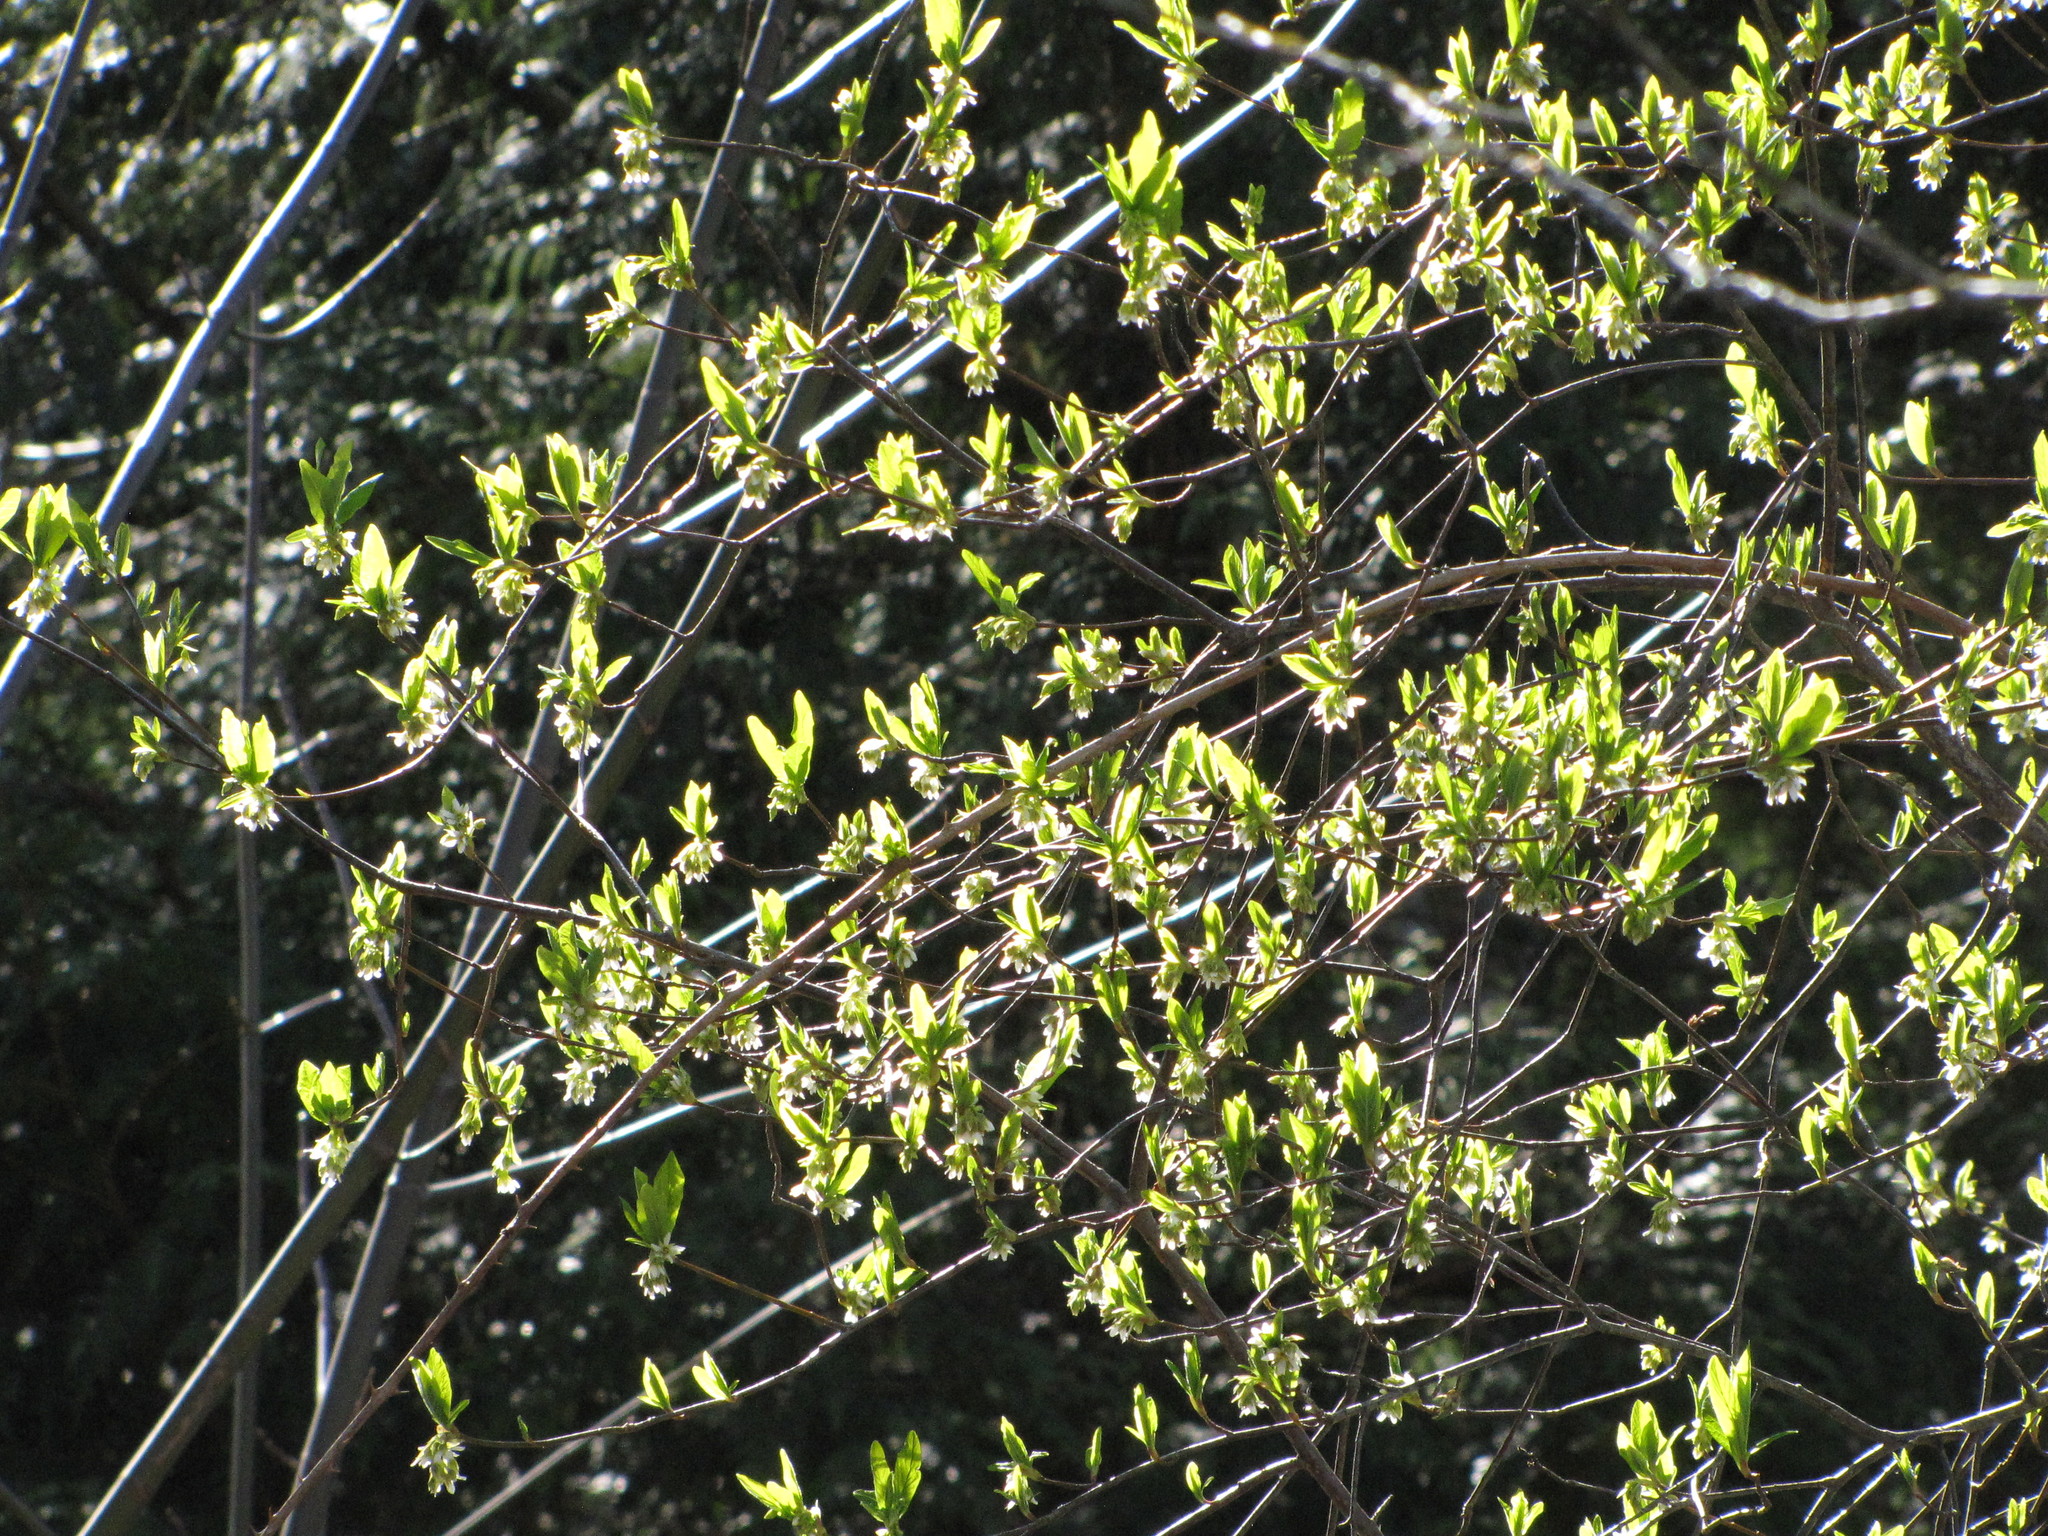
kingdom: Plantae
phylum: Tracheophyta
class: Magnoliopsida
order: Rosales
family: Rosaceae
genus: Oemleria
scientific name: Oemleria cerasiformis
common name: Osoberry
